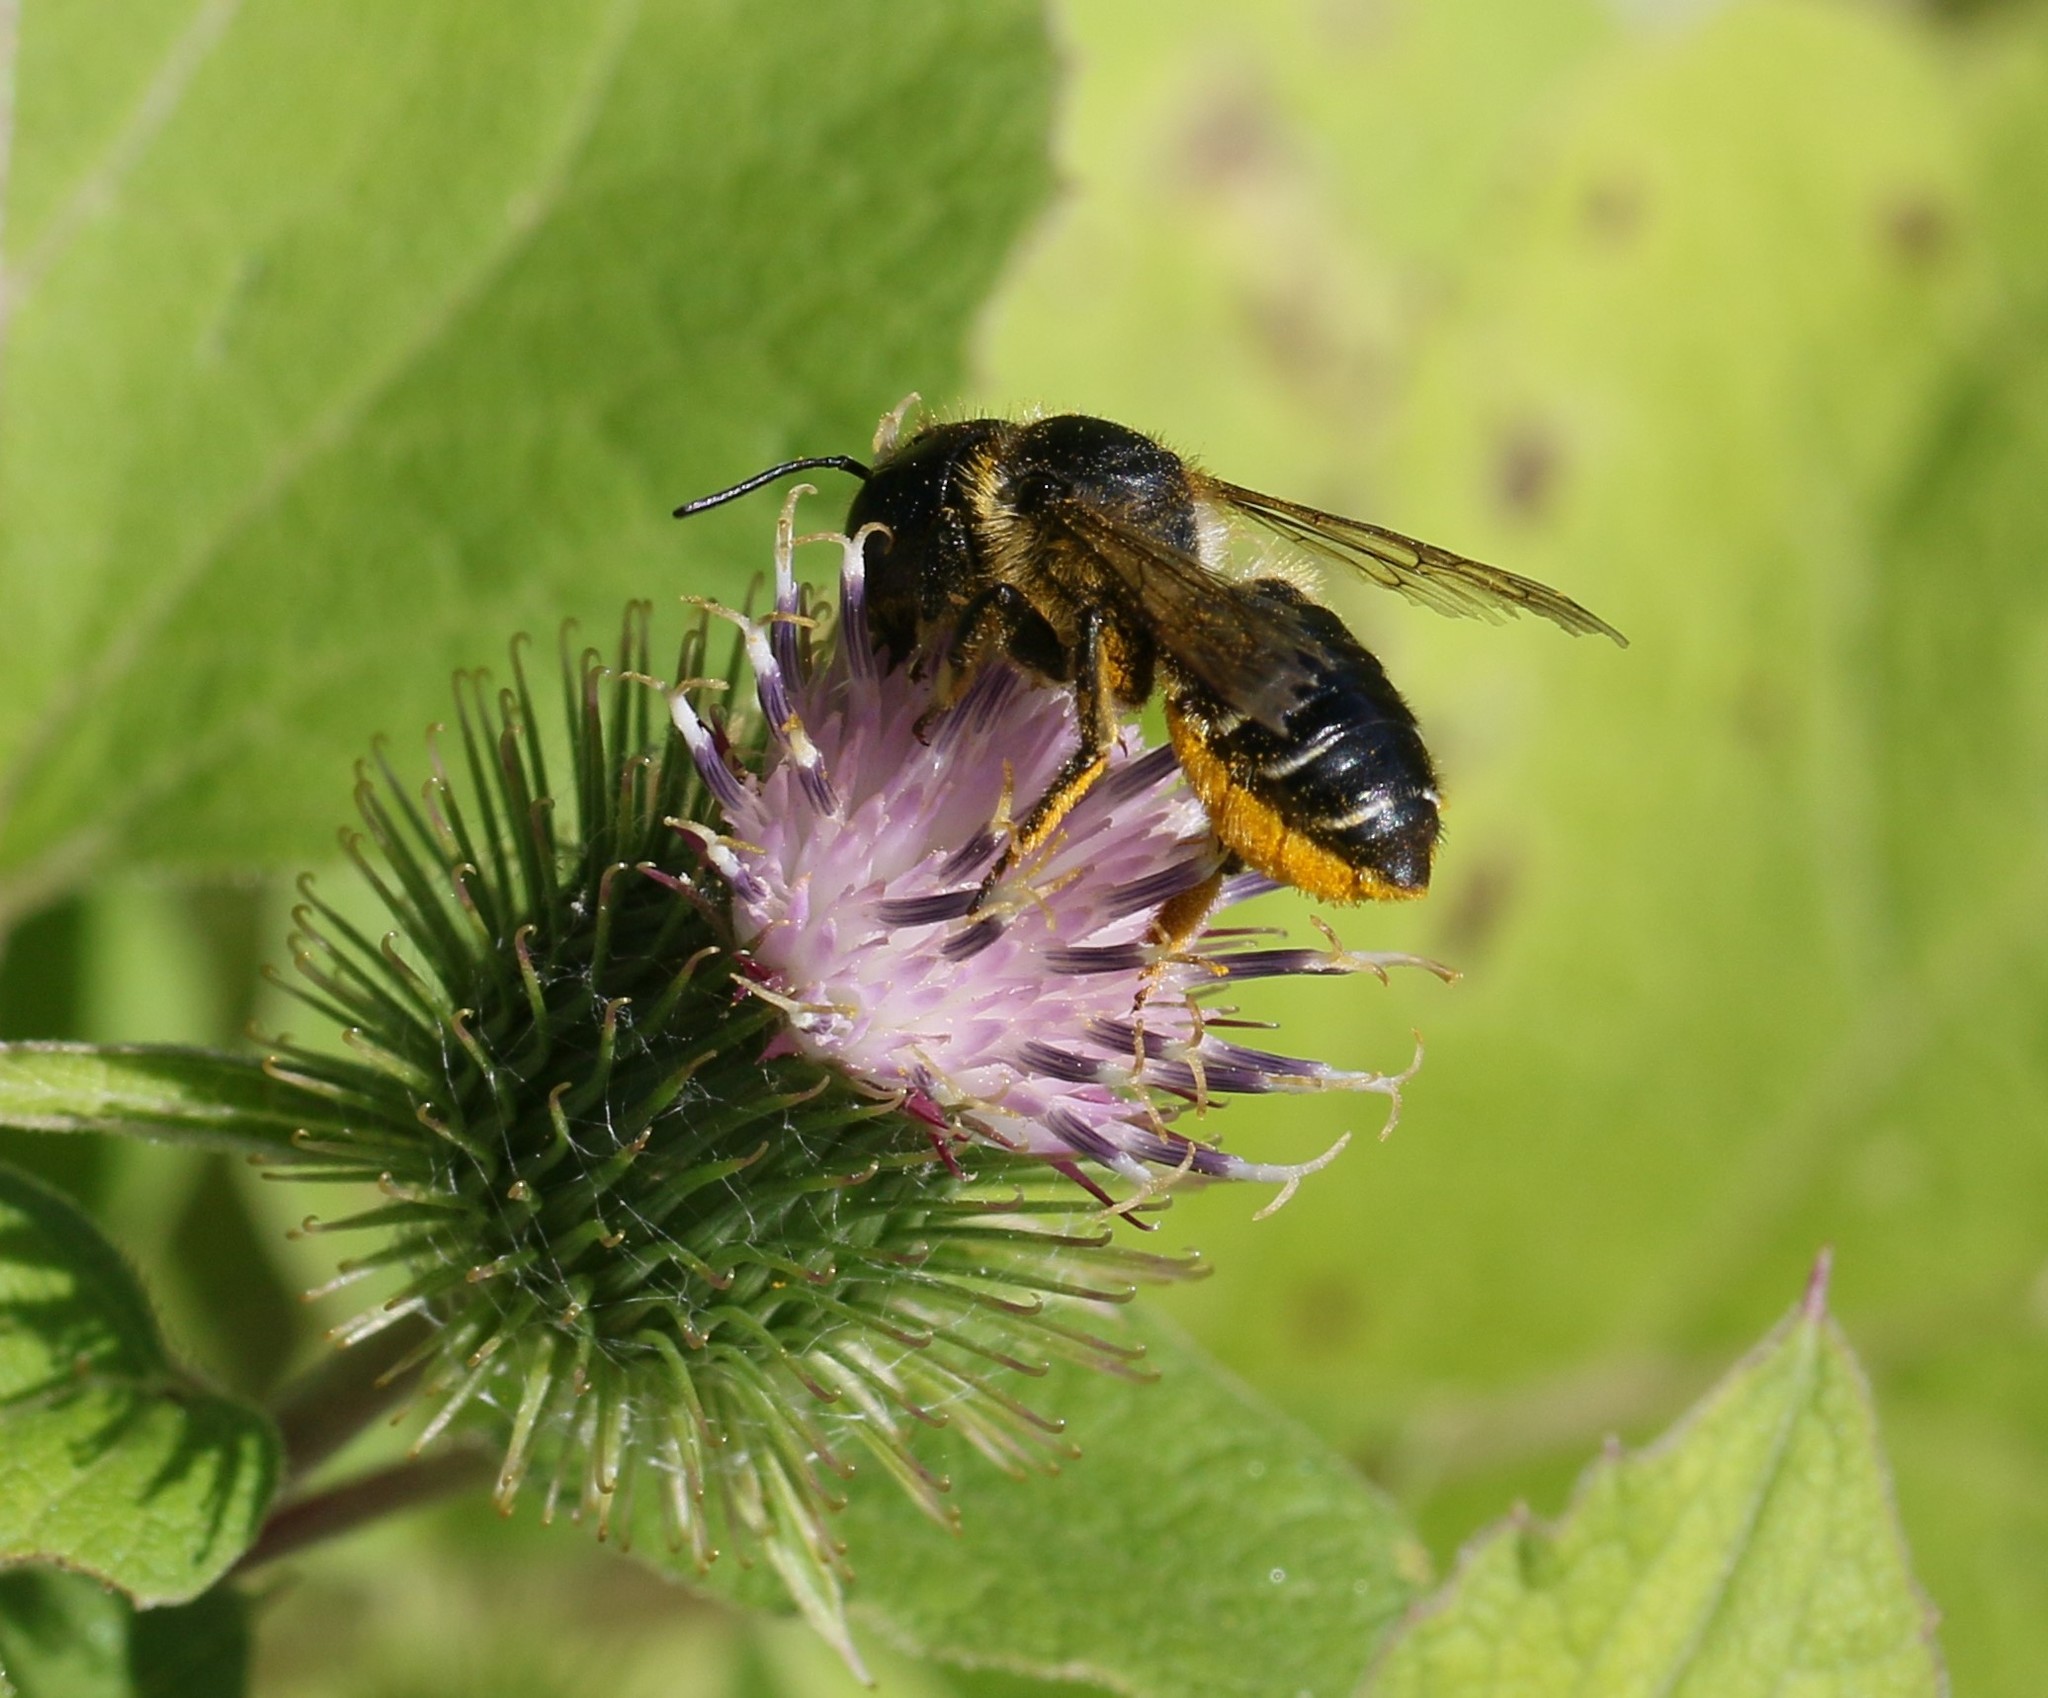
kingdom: Animalia
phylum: Arthropoda
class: Insecta
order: Hymenoptera
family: Megachilidae
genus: Megachile
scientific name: Megachile inermis
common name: Unarmed leafcutter bee
